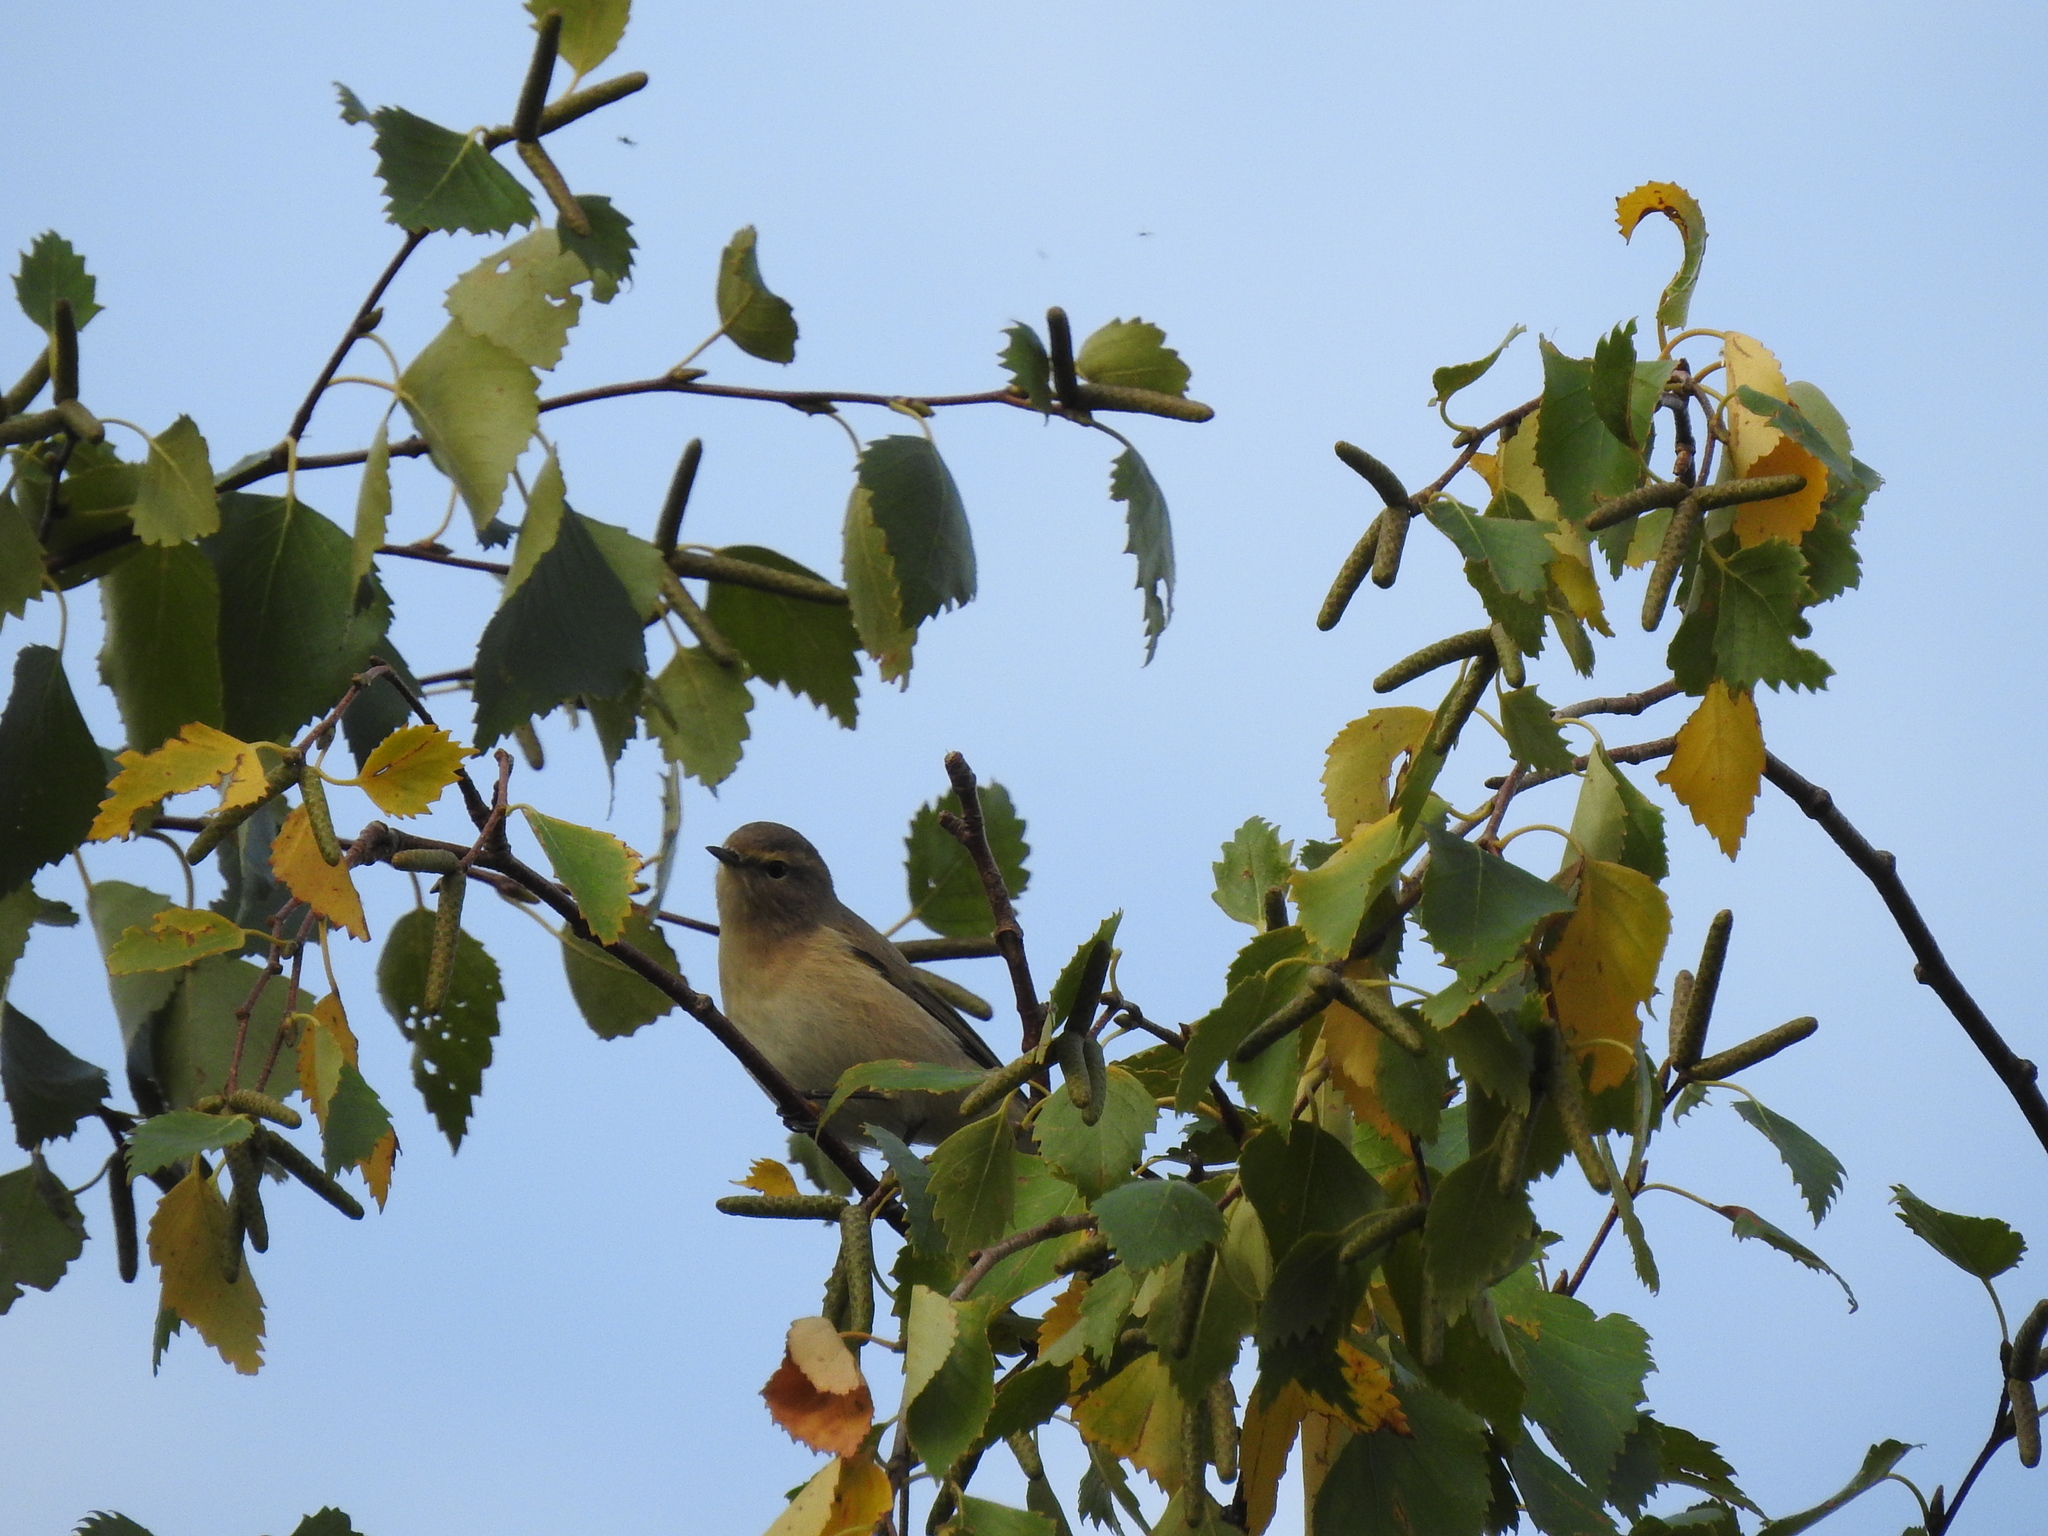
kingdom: Animalia
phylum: Chordata
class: Aves
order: Passeriformes
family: Phylloscopidae
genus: Phylloscopus
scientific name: Phylloscopus collybita
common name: Common chiffchaff
